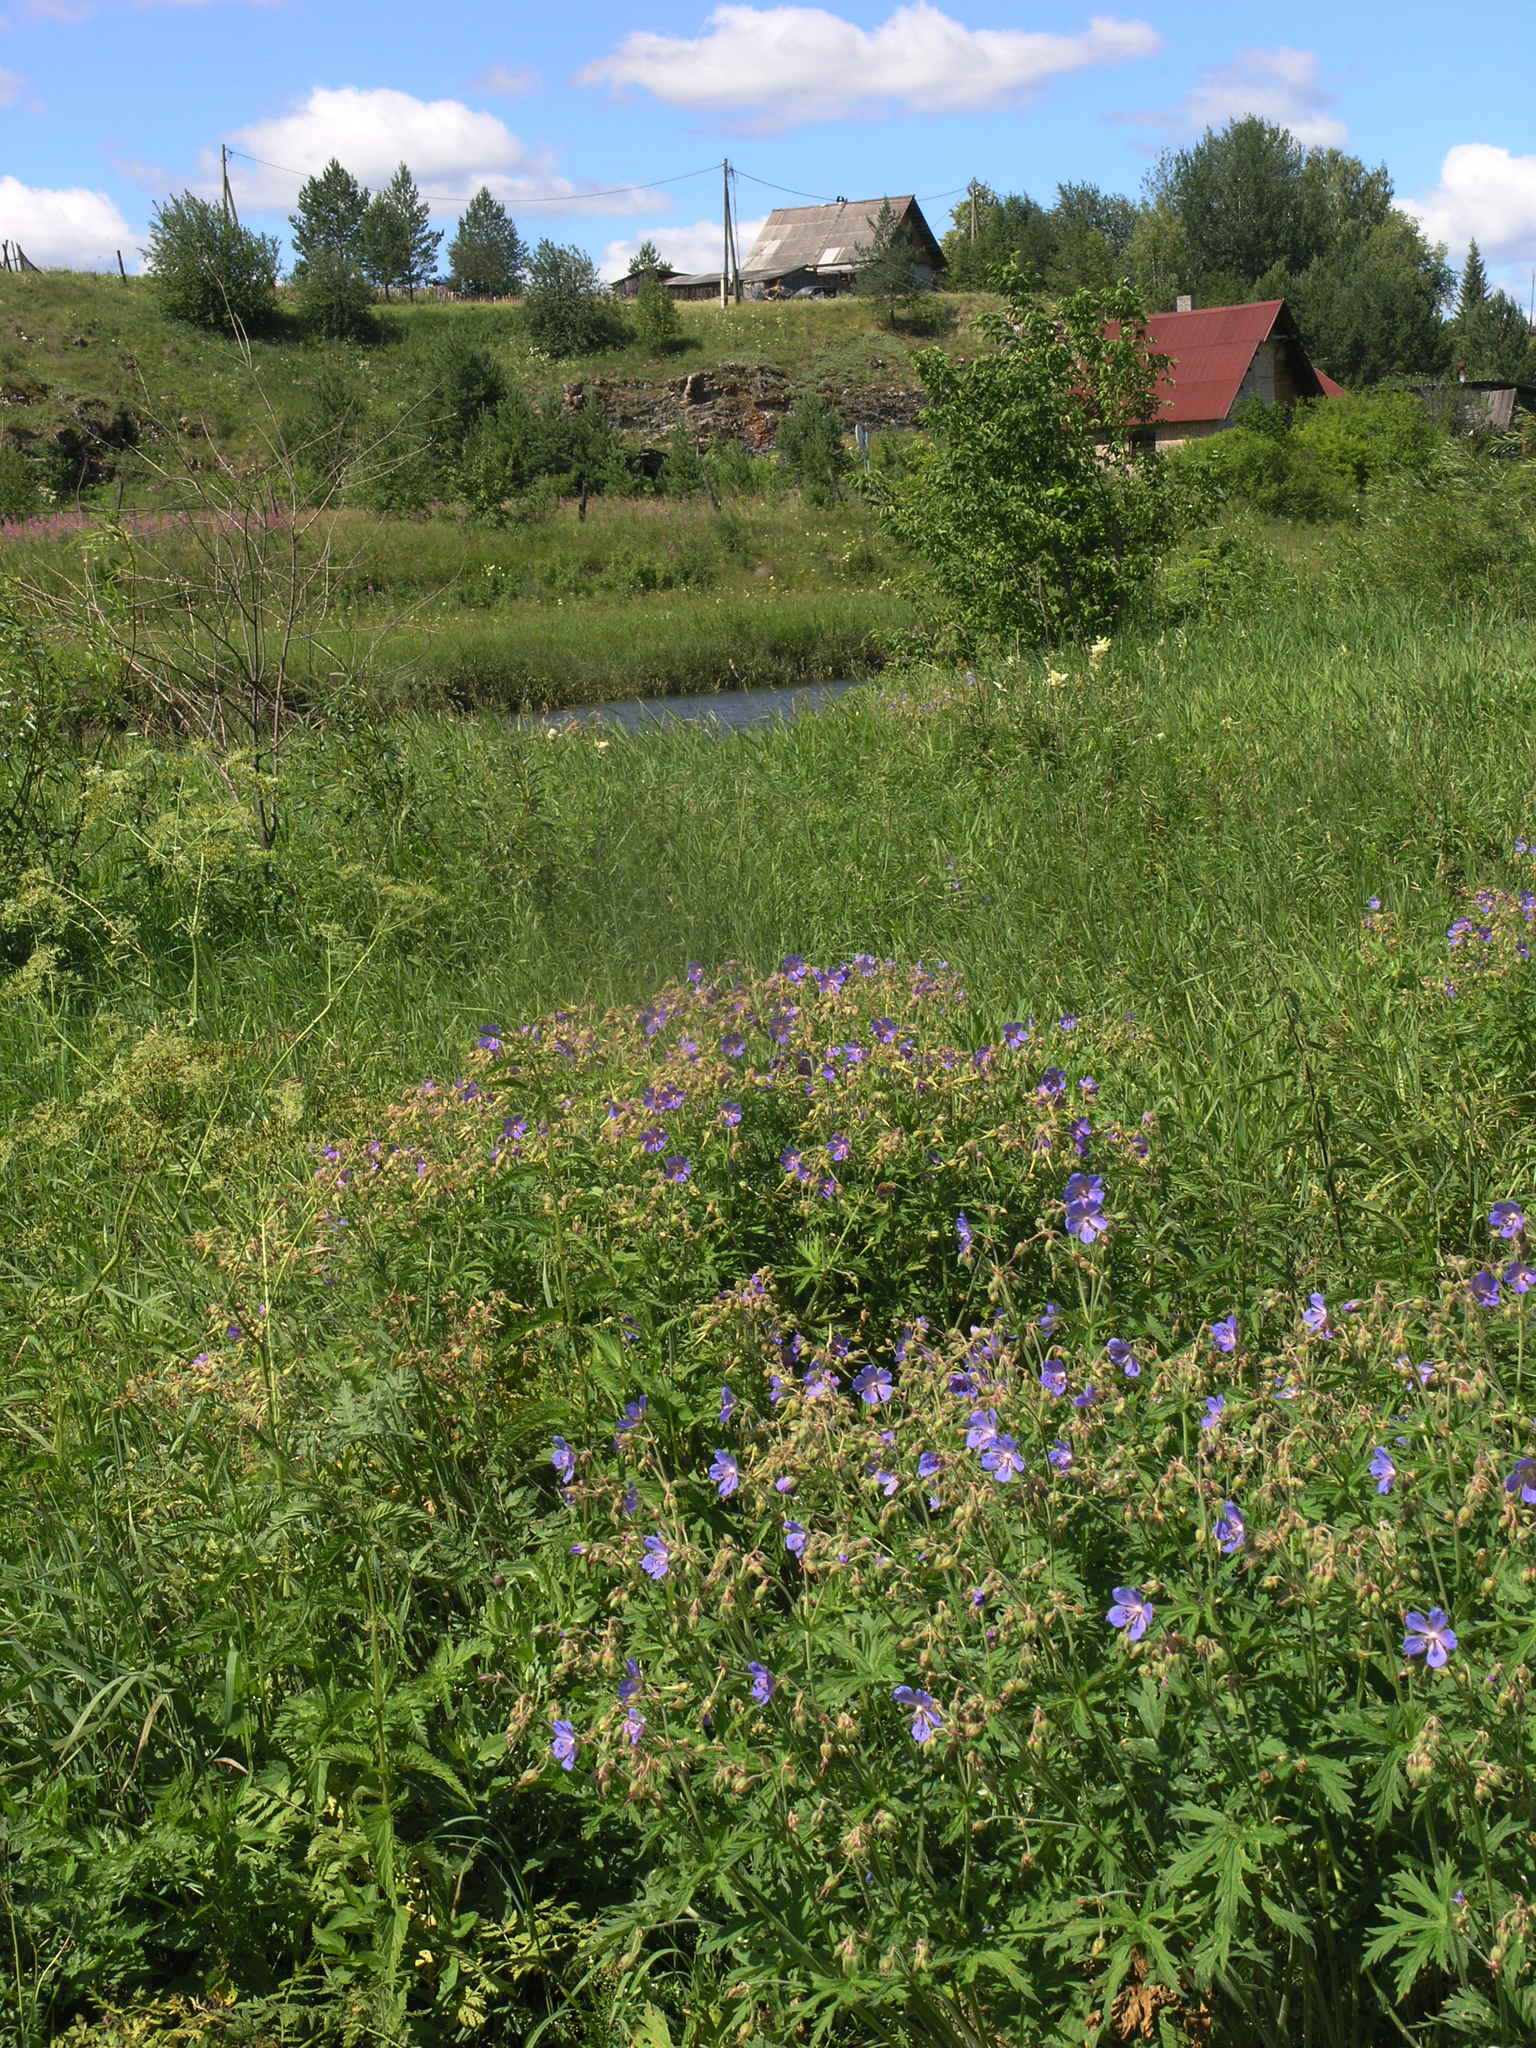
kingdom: Plantae
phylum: Tracheophyta
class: Magnoliopsida
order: Geraniales
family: Geraniaceae
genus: Geranium
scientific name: Geranium pratense
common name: Meadow crane's-bill
